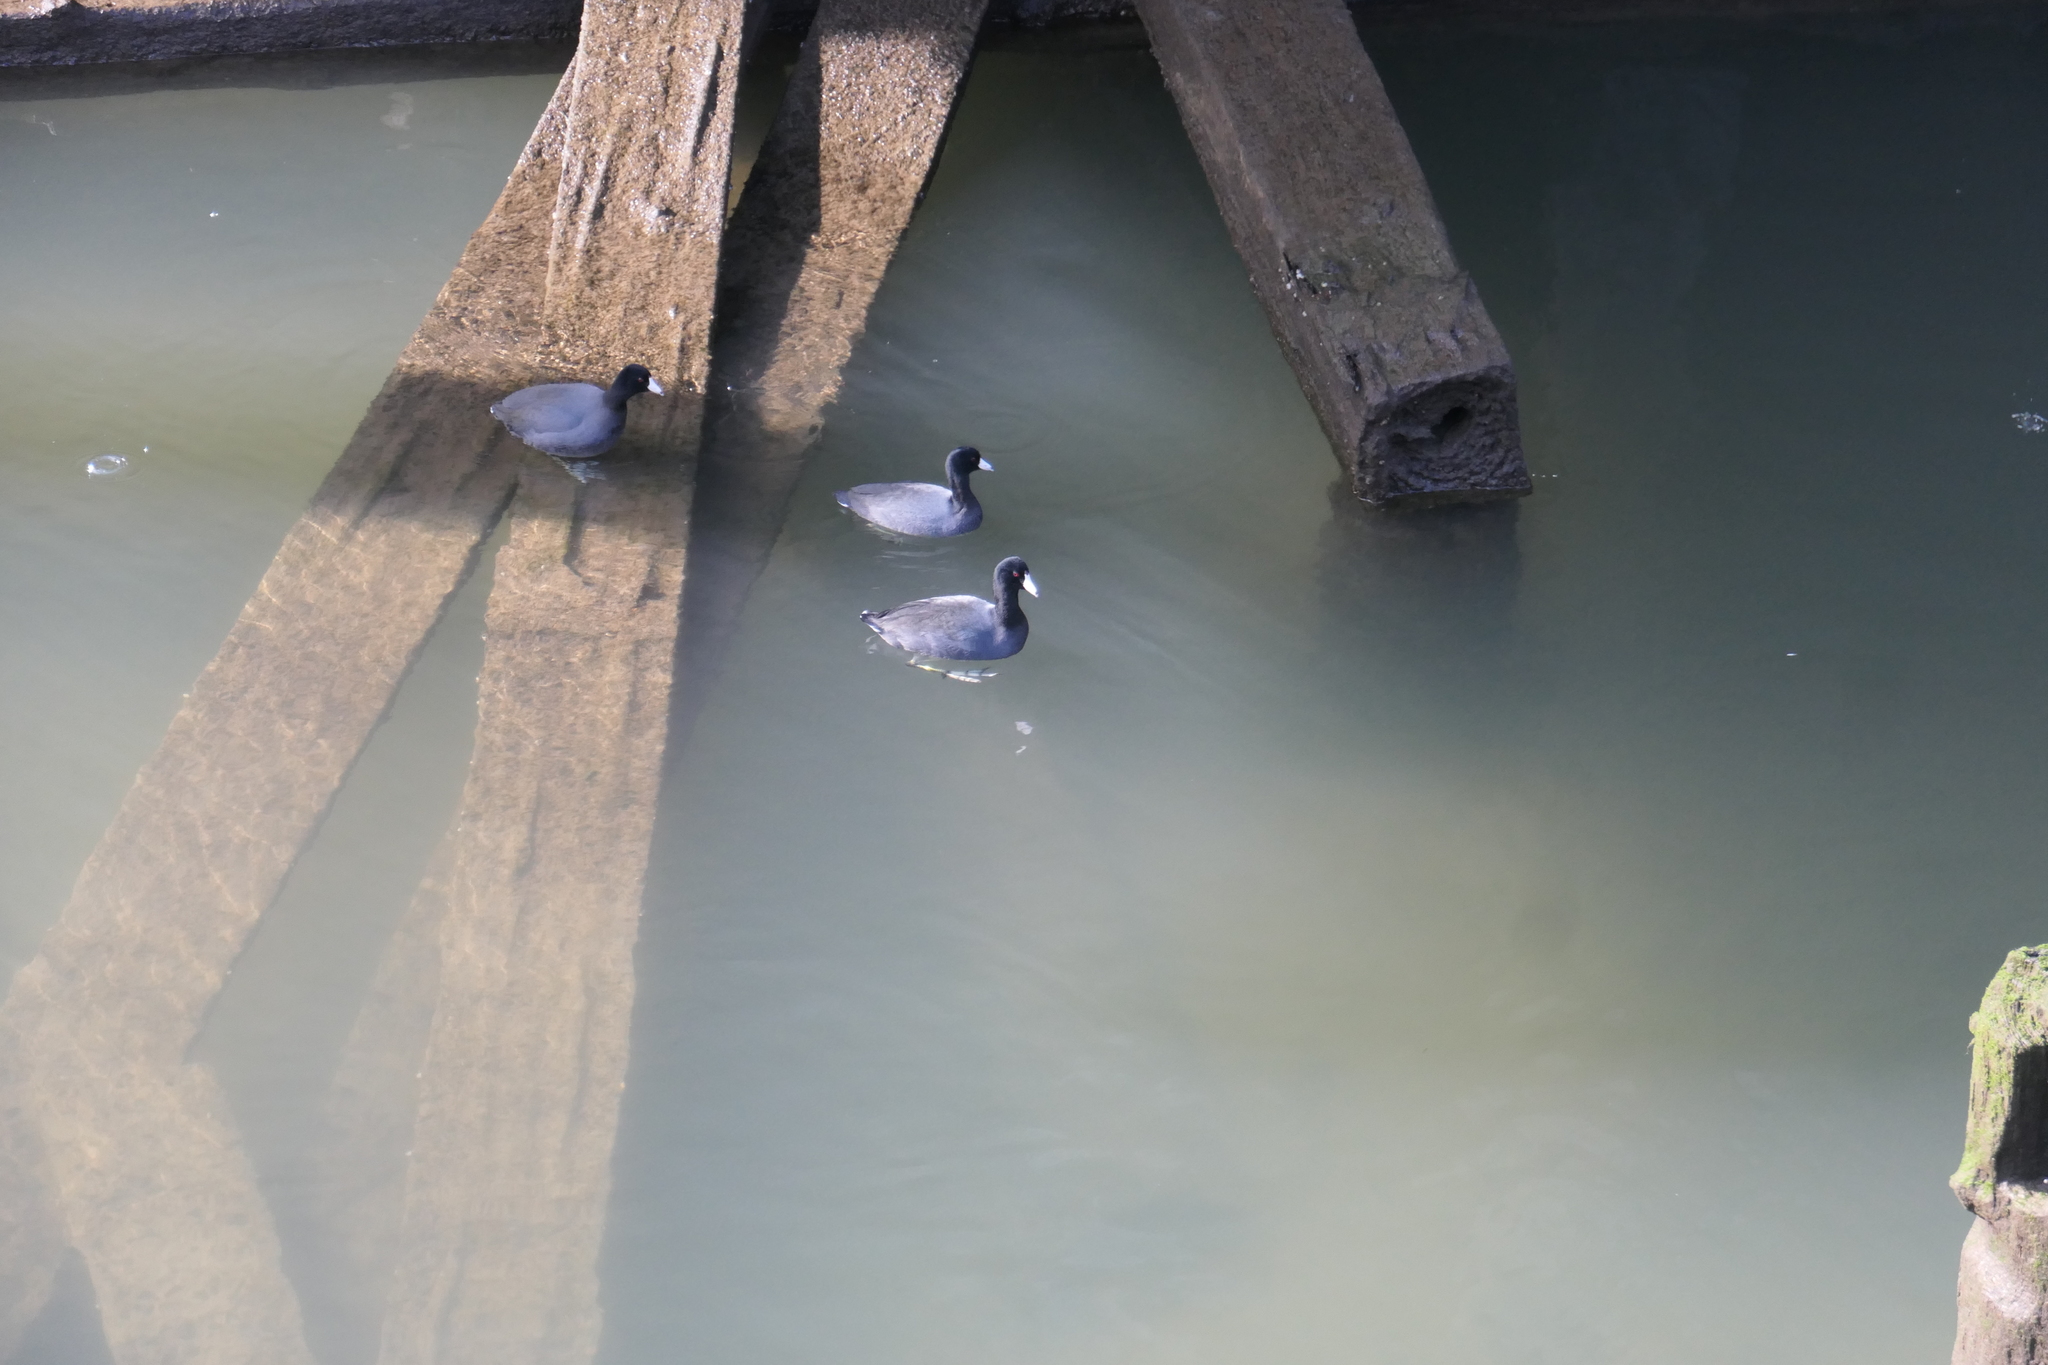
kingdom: Animalia
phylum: Chordata
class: Aves
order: Gruiformes
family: Rallidae
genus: Fulica
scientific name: Fulica americana
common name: American coot
